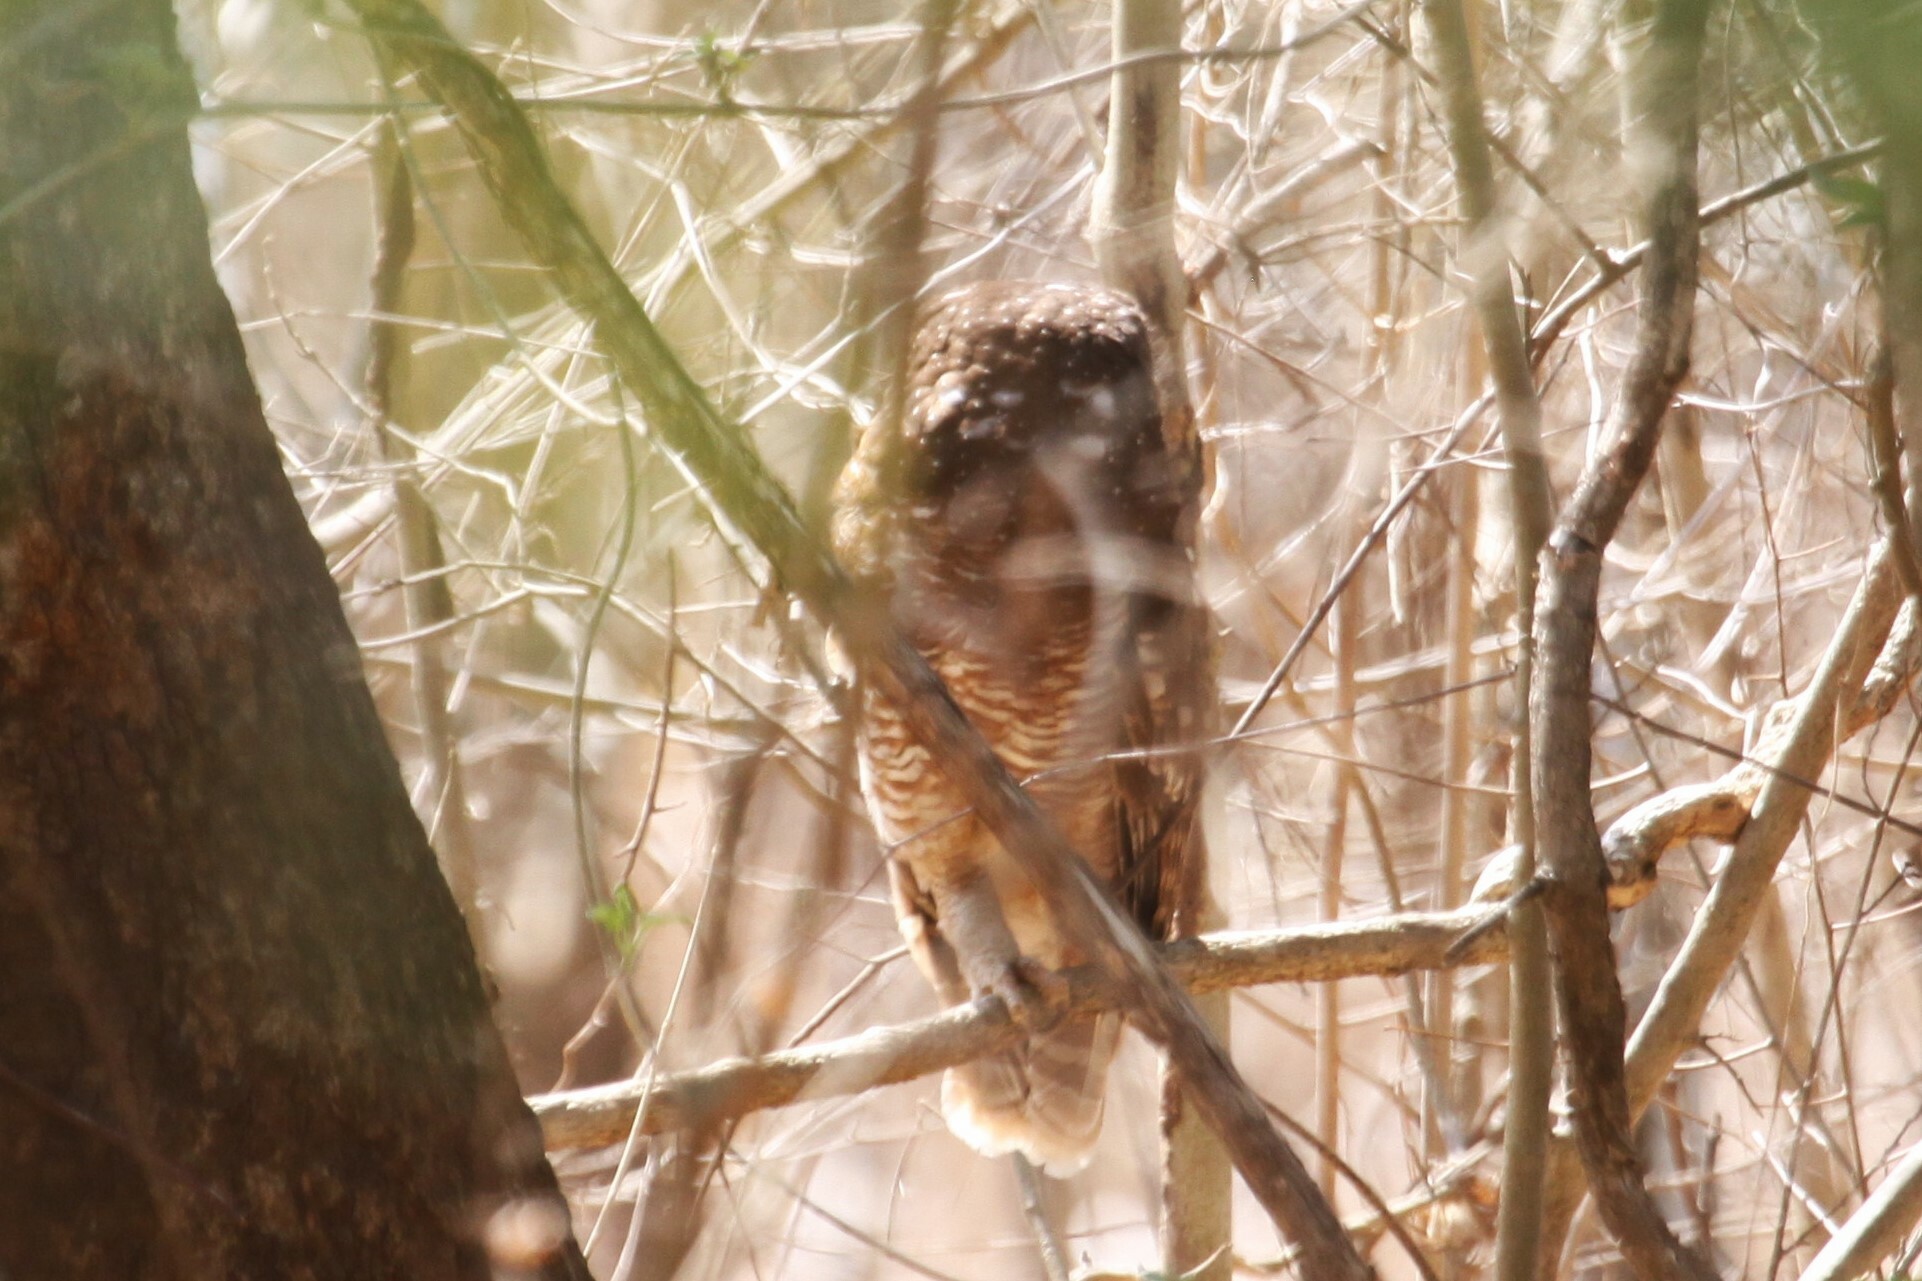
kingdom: Animalia
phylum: Chordata
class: Aves
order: Strigiformes
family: Strigidae
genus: Strix
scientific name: Strix woodfordii
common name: African wood owl
